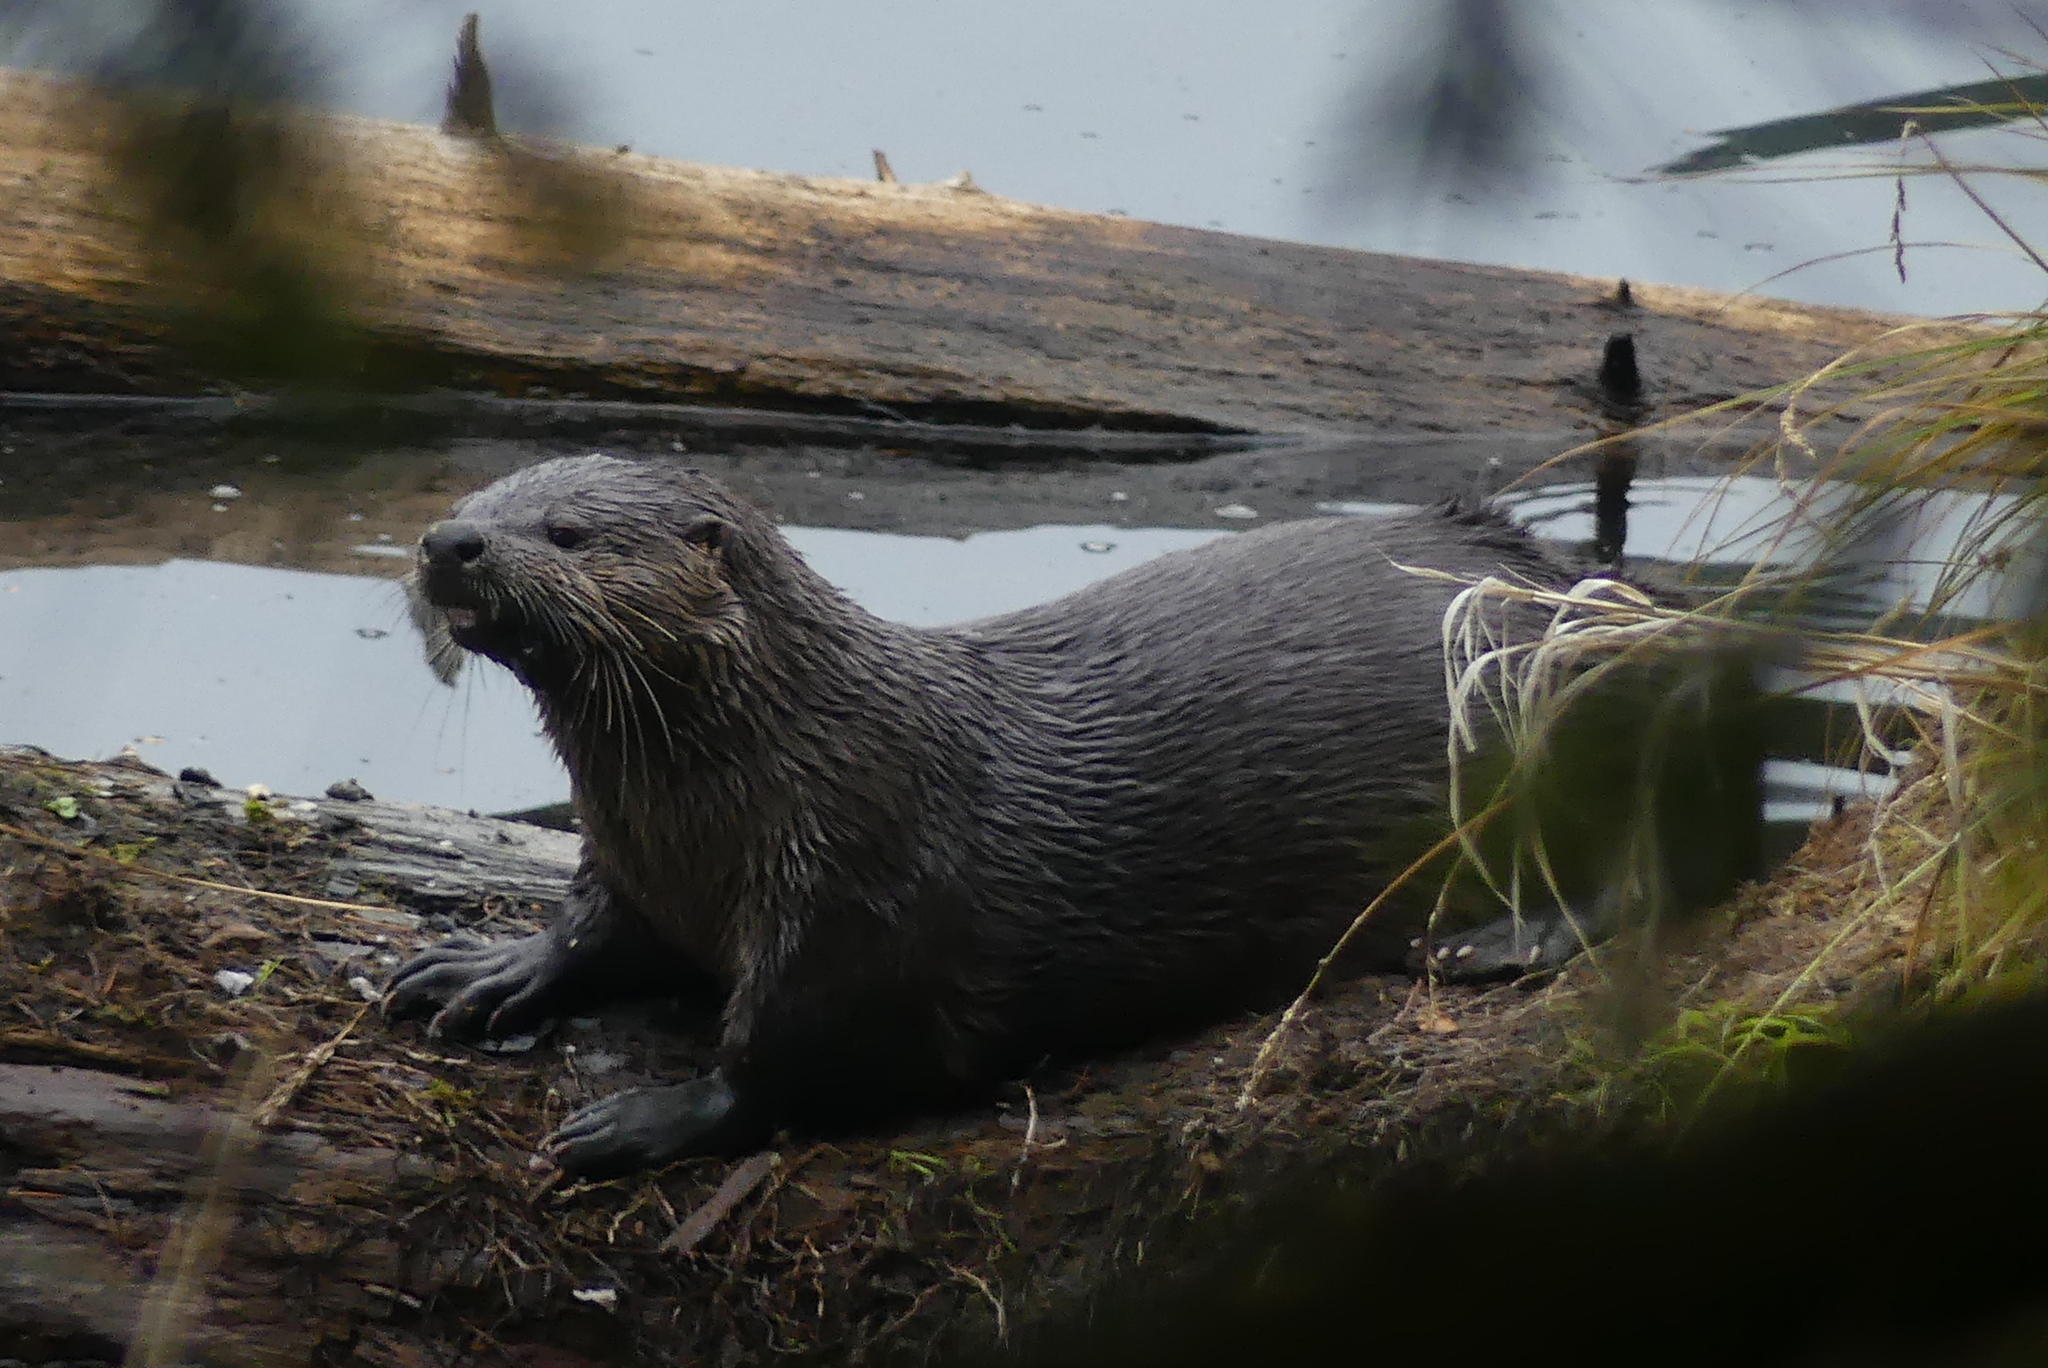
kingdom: Animalia
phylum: Chordata
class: Mammalia
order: Carnivora
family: Mustelidae
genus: Lontra
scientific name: Lontra canadensis
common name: North american river otter
